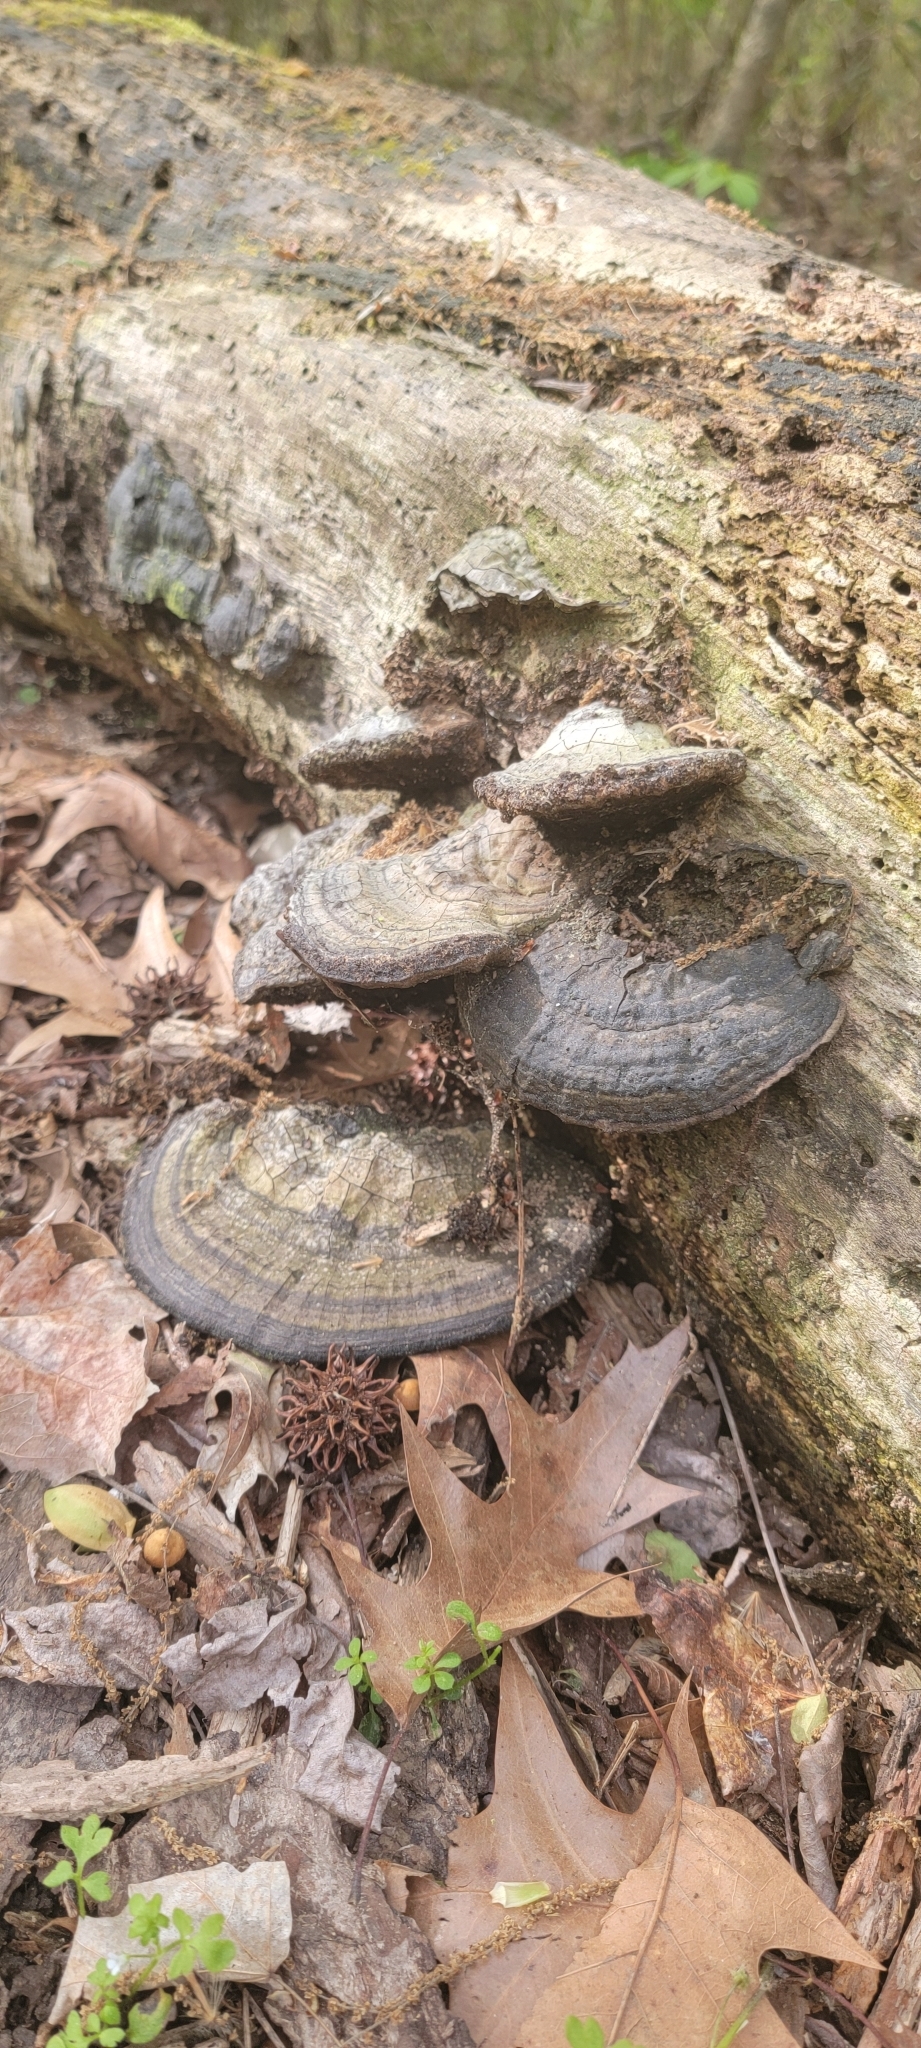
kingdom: Fungi
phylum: Basidiomycota
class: Agaricomycetes
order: Polyporales
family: Polyporaceae
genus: Fomes
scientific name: Fomes fasciatus
